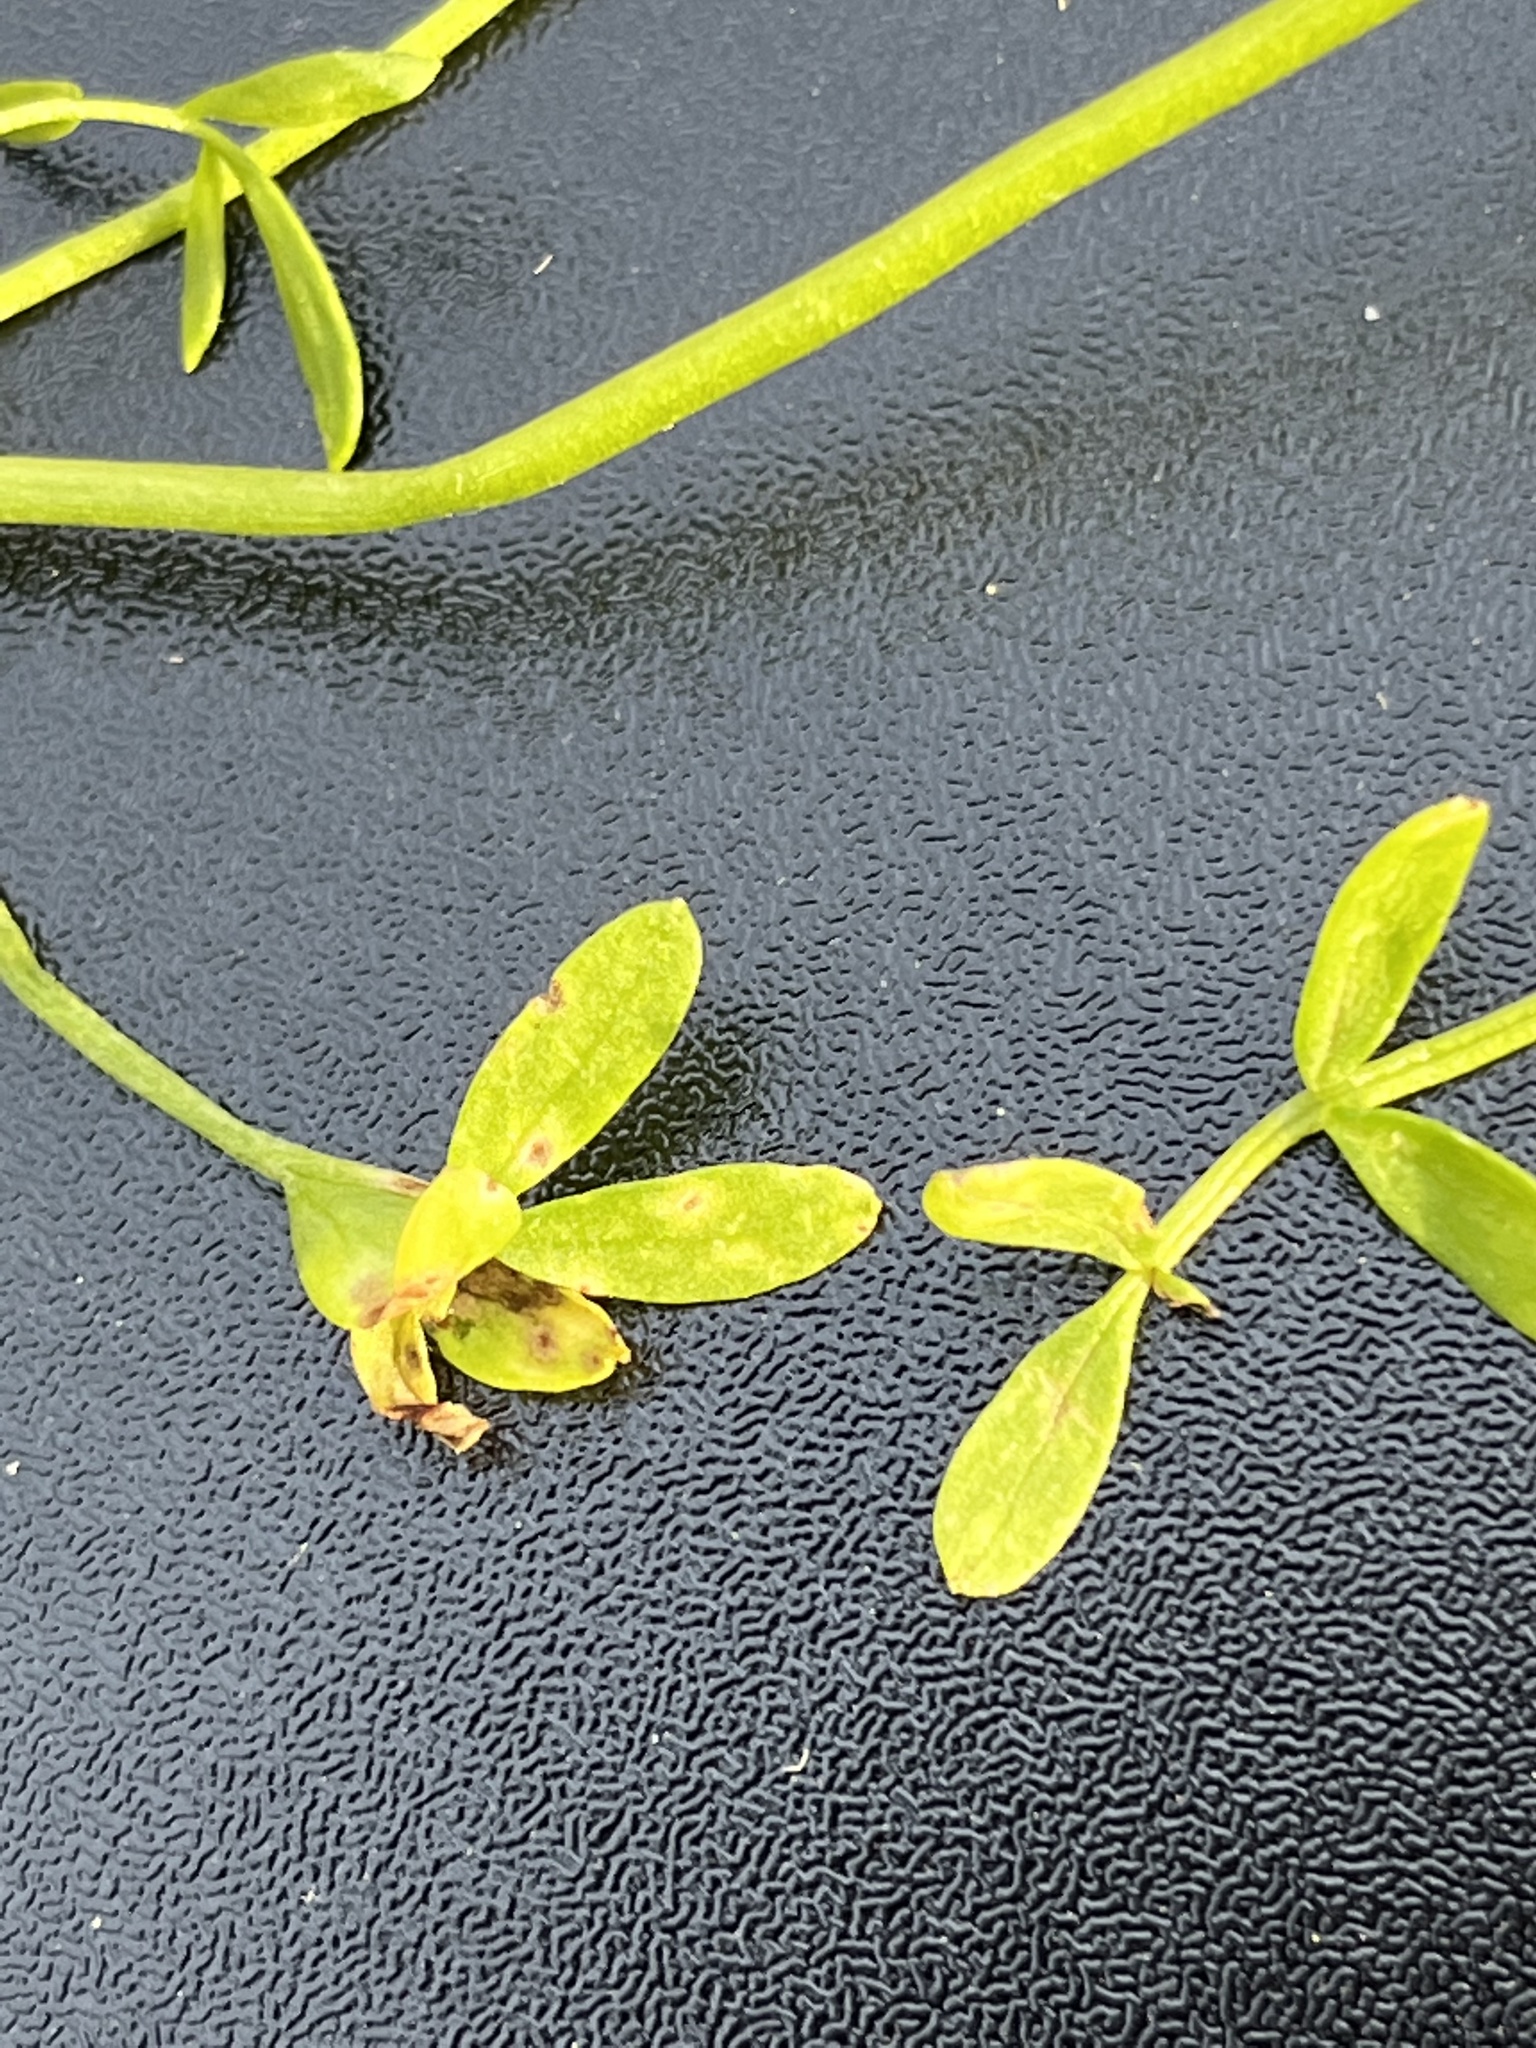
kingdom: Fungi
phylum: Basidiomycota
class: Exobasidiomycetes
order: Entylomatales
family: Entylomataceae
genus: Entyloma
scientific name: Entyloma floerkeae
